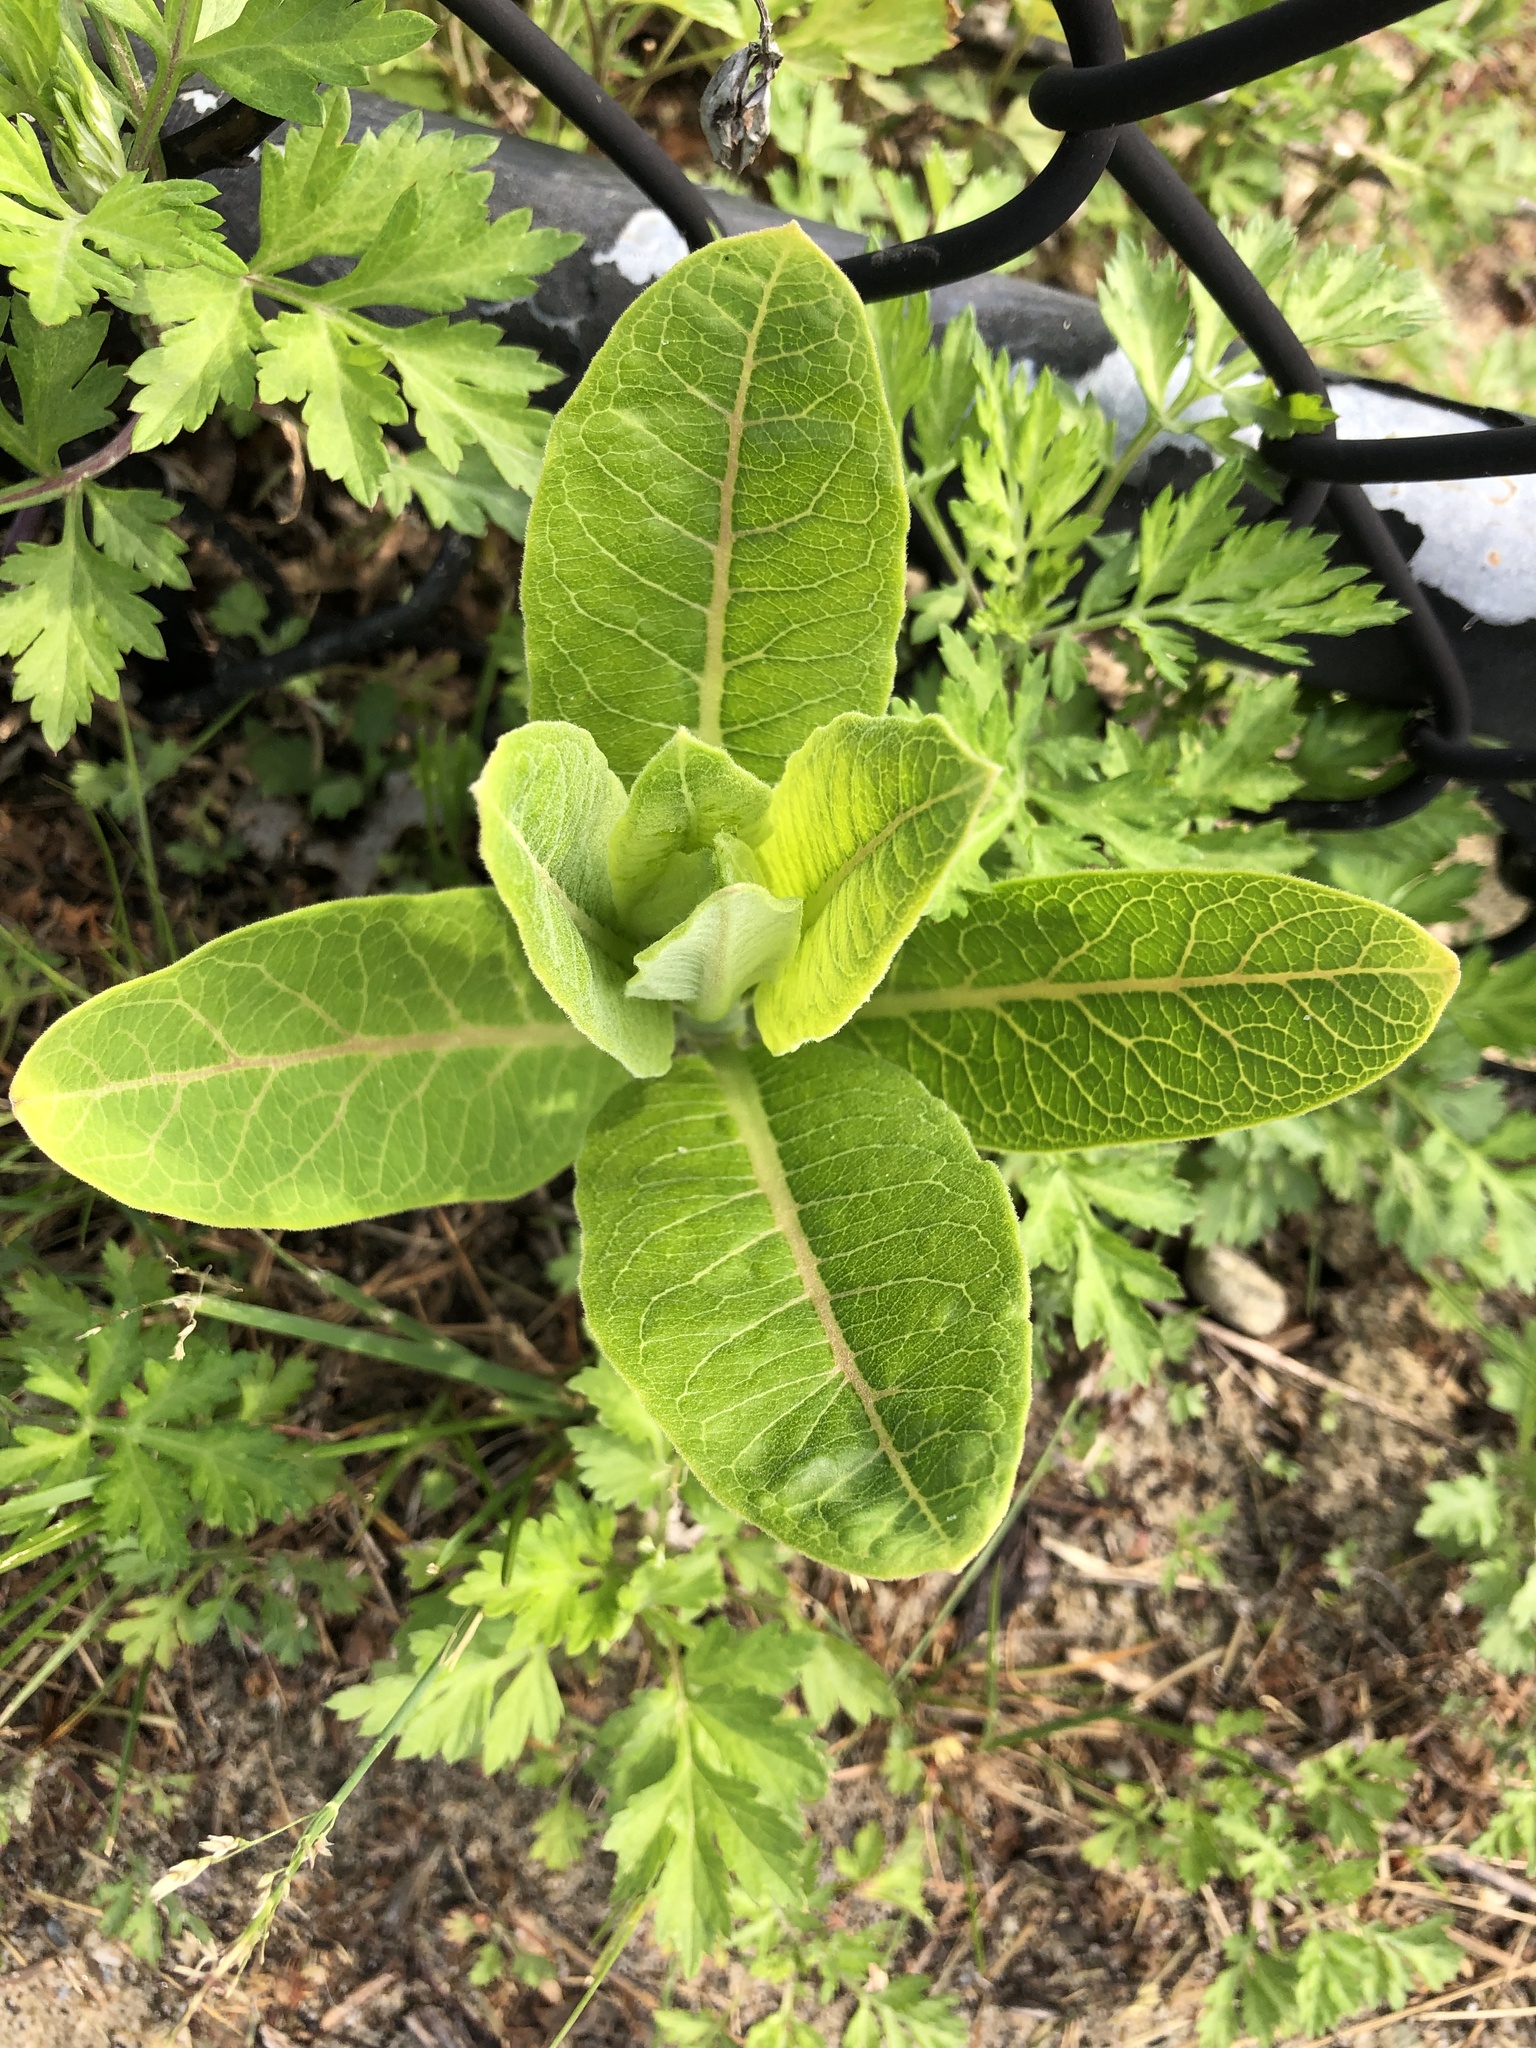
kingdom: Plantae
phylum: Tracheophyta
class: Magnoliopsida
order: Gentianales
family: Apocynaceae
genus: Asclepias
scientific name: Asclepias syriaca
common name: Common milkweed
